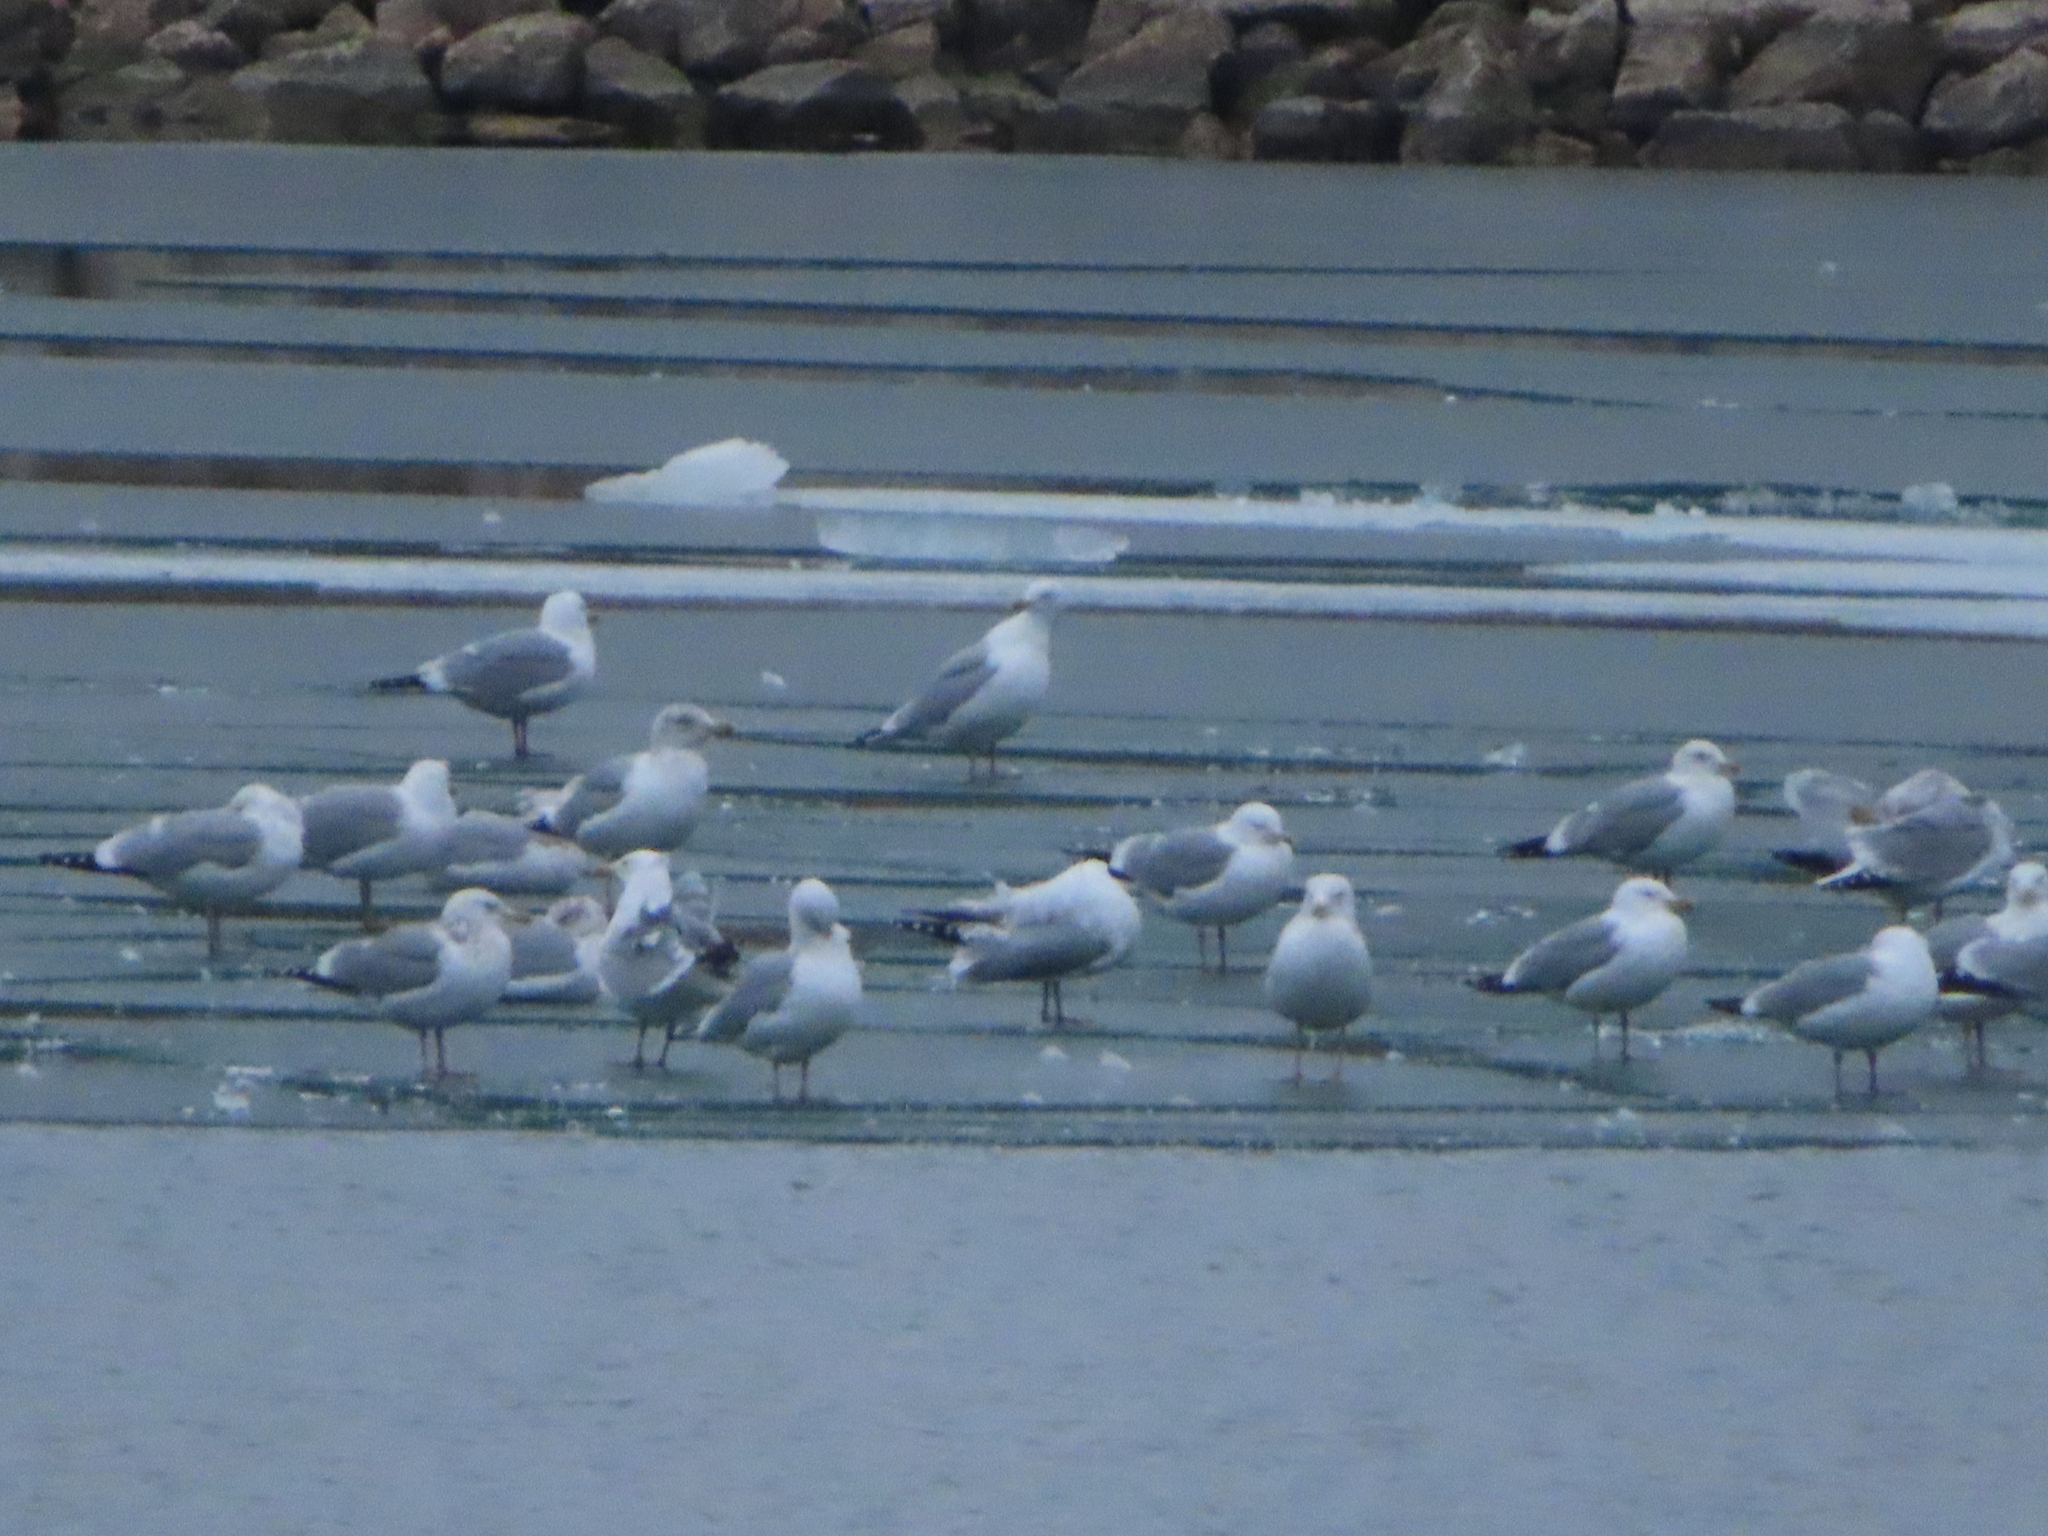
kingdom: Animalia
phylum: Chordata
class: Aves
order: Charadriiformes
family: Laridae
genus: Larus
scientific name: Larus argentatus
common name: Herring gull
